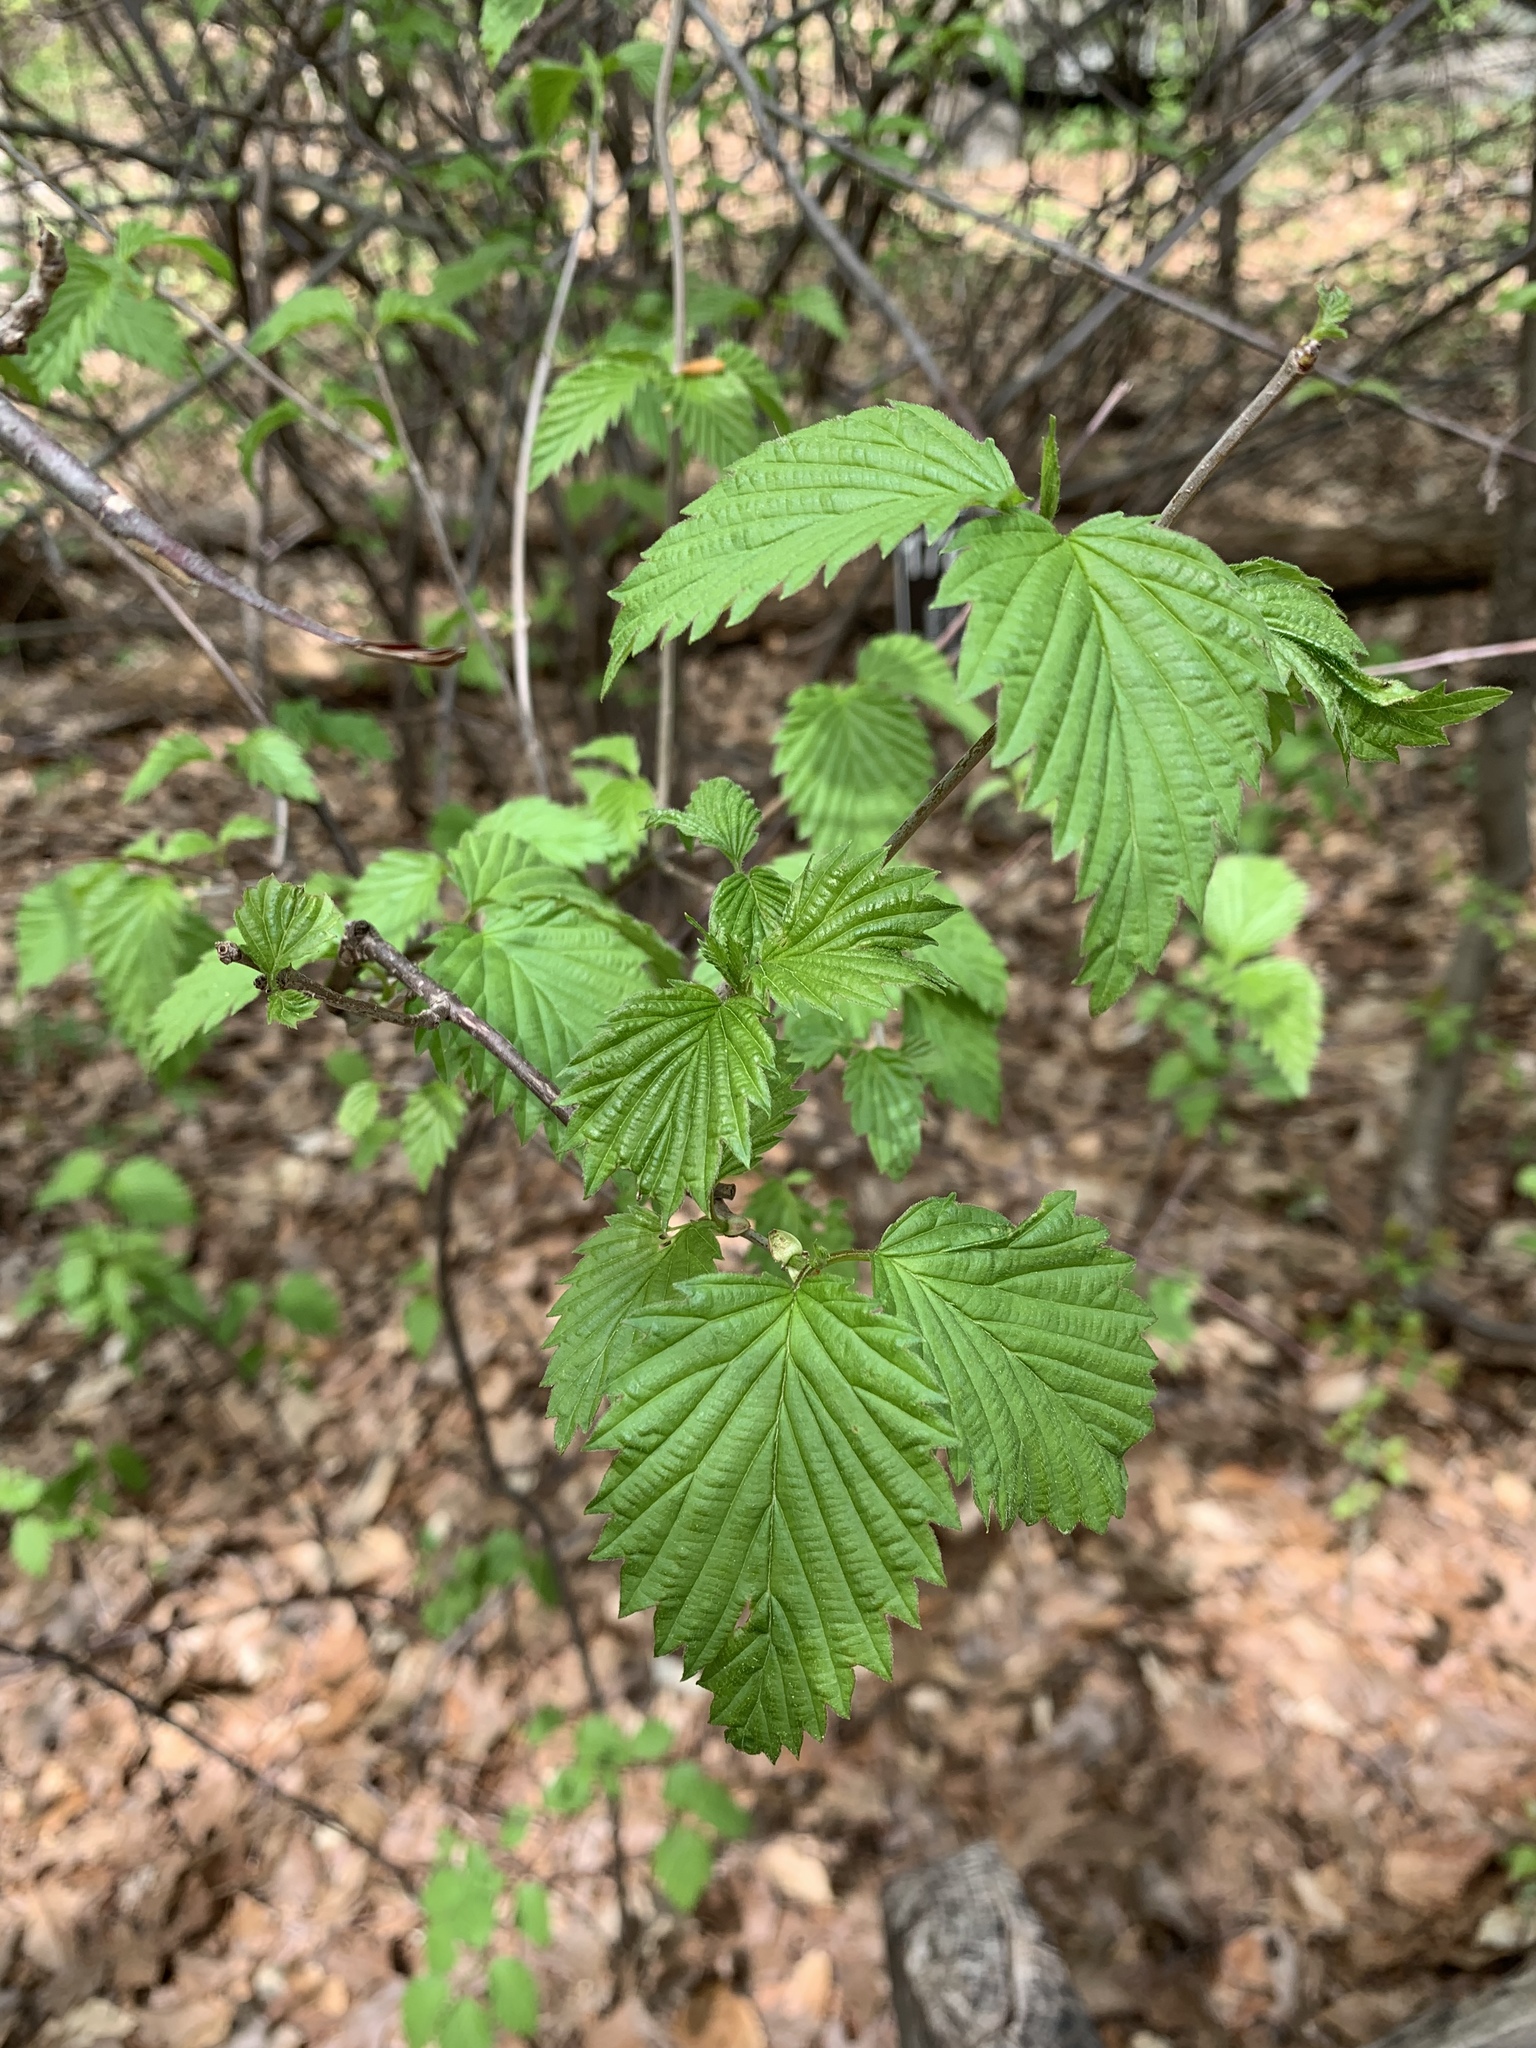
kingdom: Plantae
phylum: Tracheophyta
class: Magnoliopsida
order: Dipsacales
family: Viburnaceae
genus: Viburnum
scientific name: Viburnum dentatum
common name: Arrow-wood
